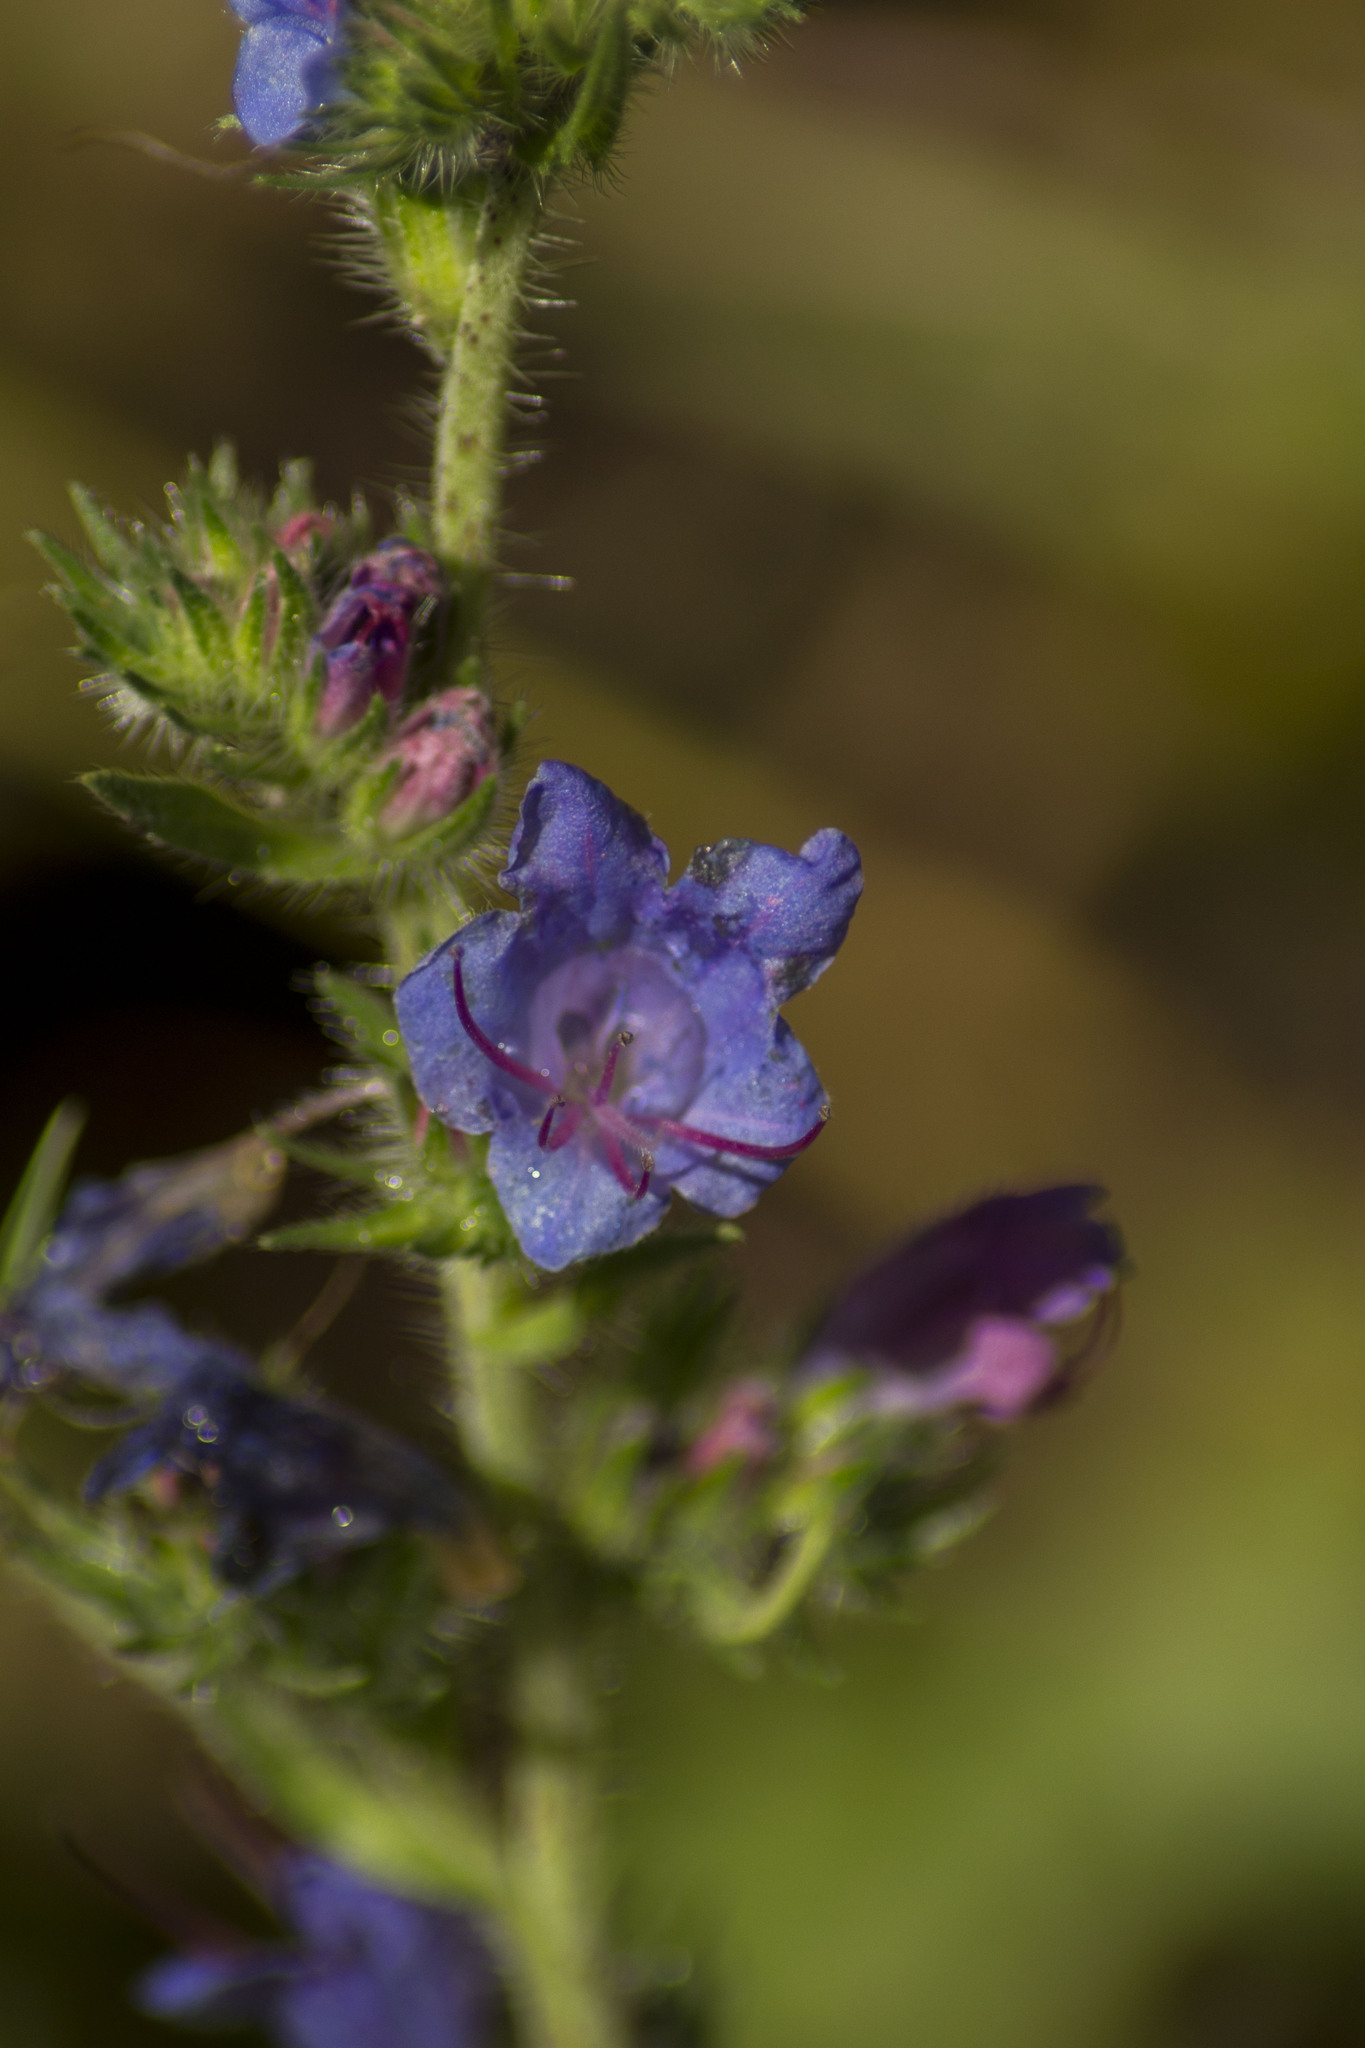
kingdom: Plantae
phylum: Tracheophyta
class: Magnoliopsida
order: Boraginales
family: Boraginaceae
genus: Echium
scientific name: Echium vulgare
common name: Common viper's bugloss
